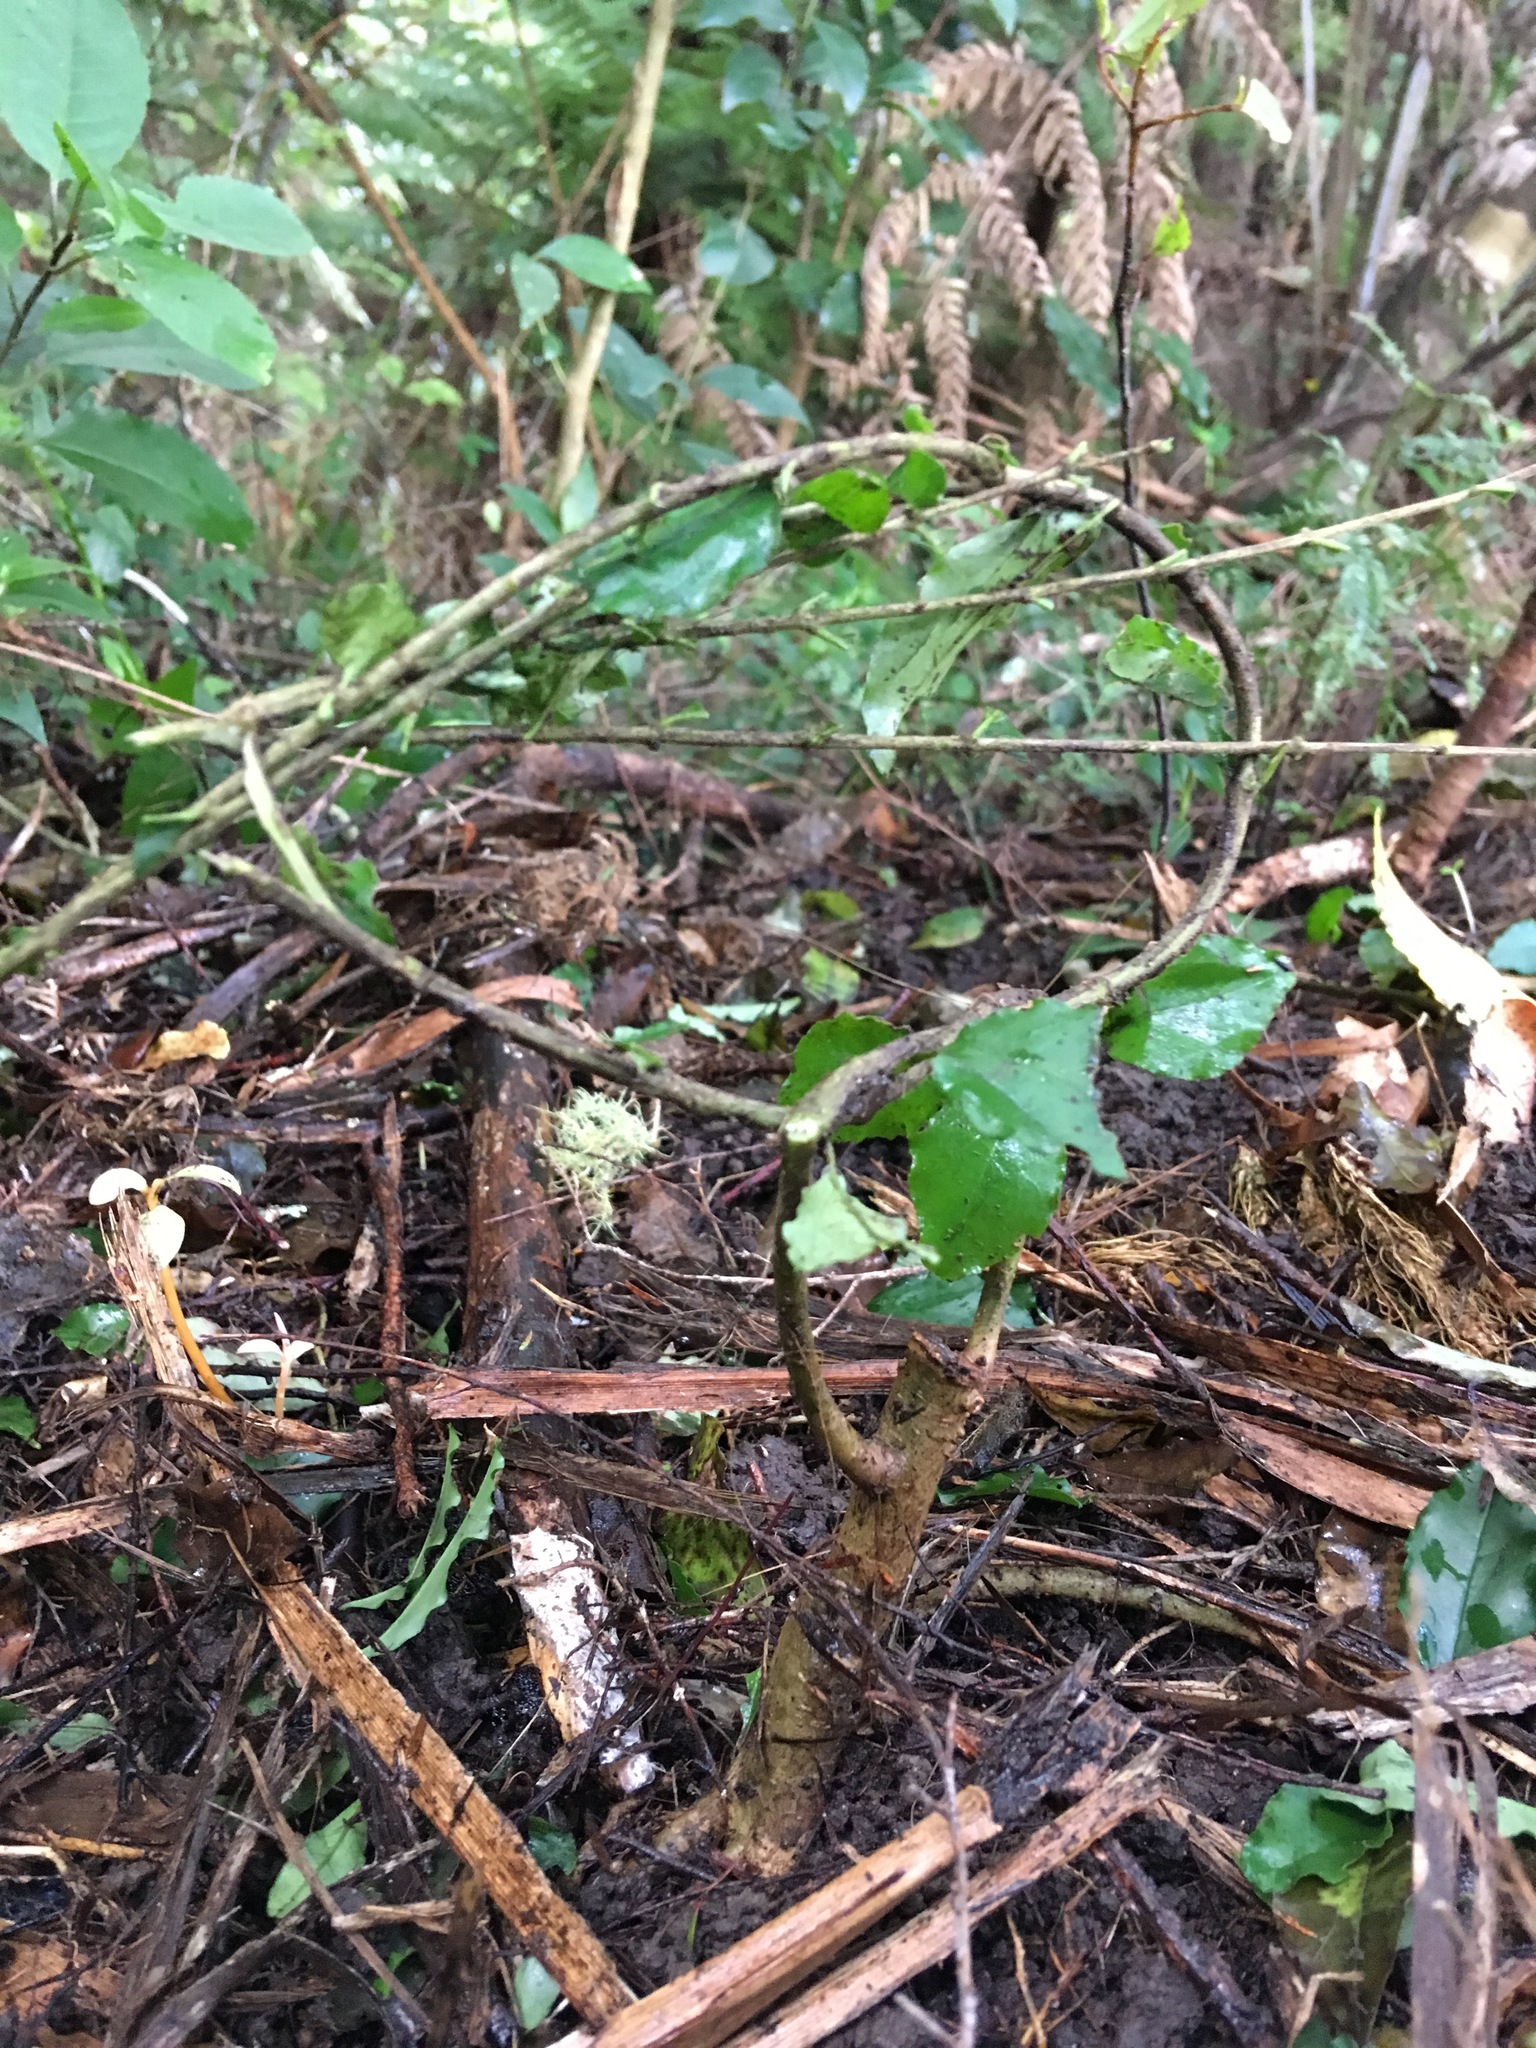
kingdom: Plantae
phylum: Tracheophyta
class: Magnoliopsida
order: Lamiales
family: Oleaceae
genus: Ligustrum
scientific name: Ligustrum sinense
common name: Chinese privet
